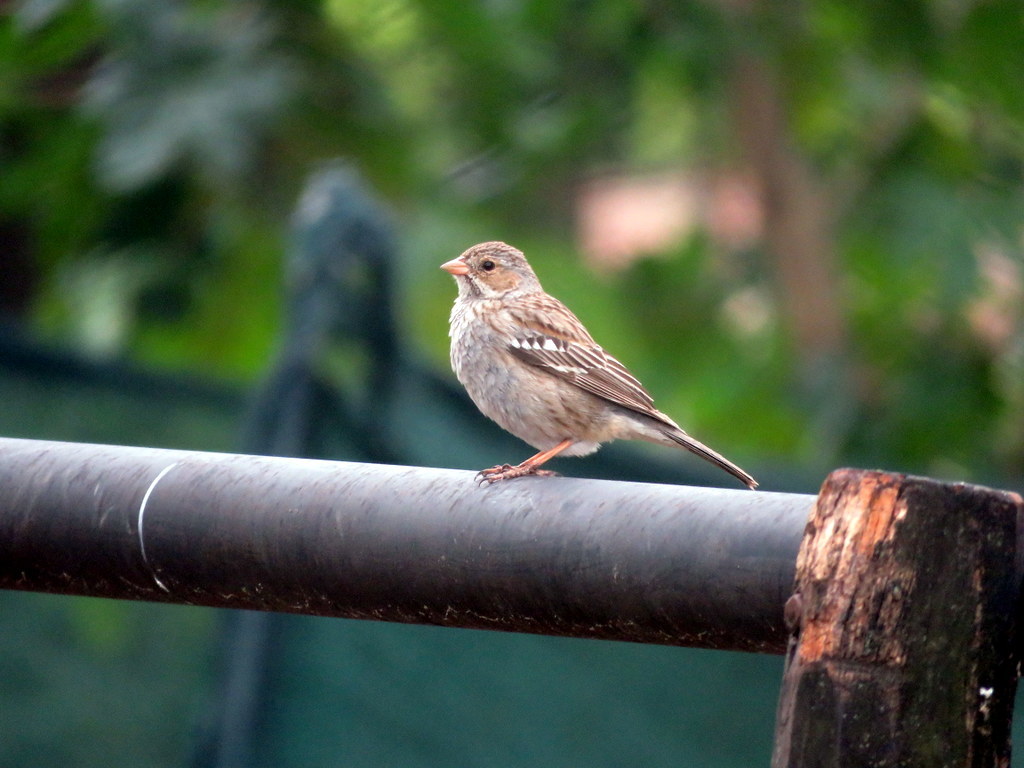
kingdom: Animalia
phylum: Chordata
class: Aves
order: Passeriformes
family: Thraupidae
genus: Rhopospina
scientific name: Rhopospina fruticeti
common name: Mourning sierra finch
